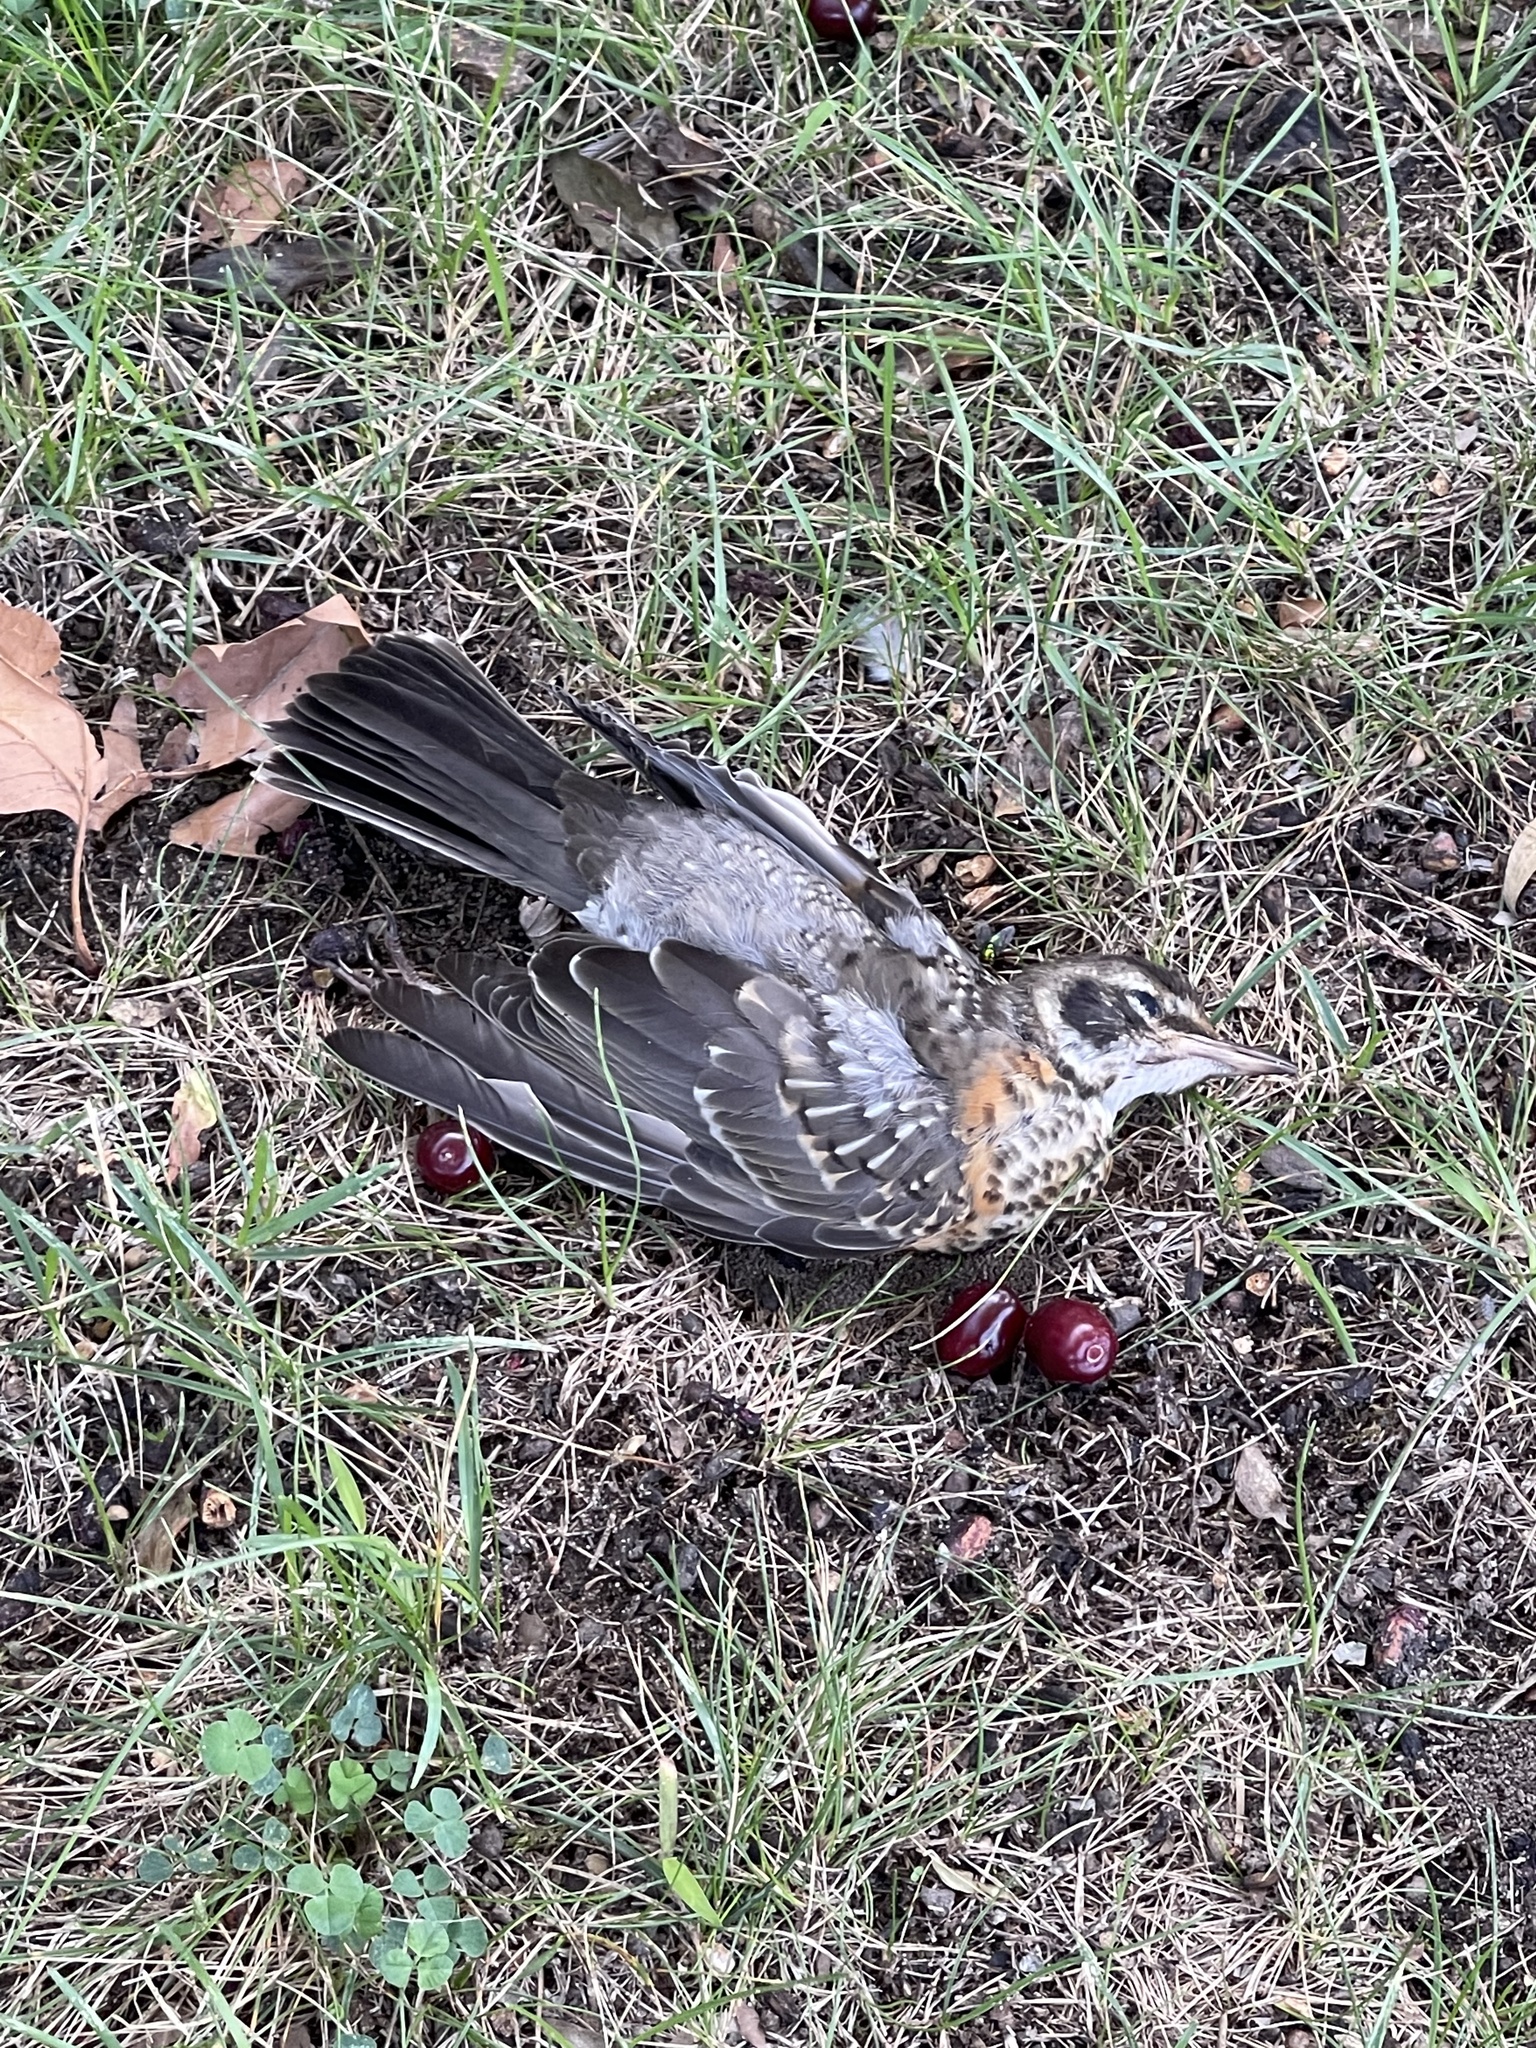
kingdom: Animalia
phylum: Chordata
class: Aves
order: Passeriformes
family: Turdidae
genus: Turdus
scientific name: Turdus migratorius
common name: American robin
